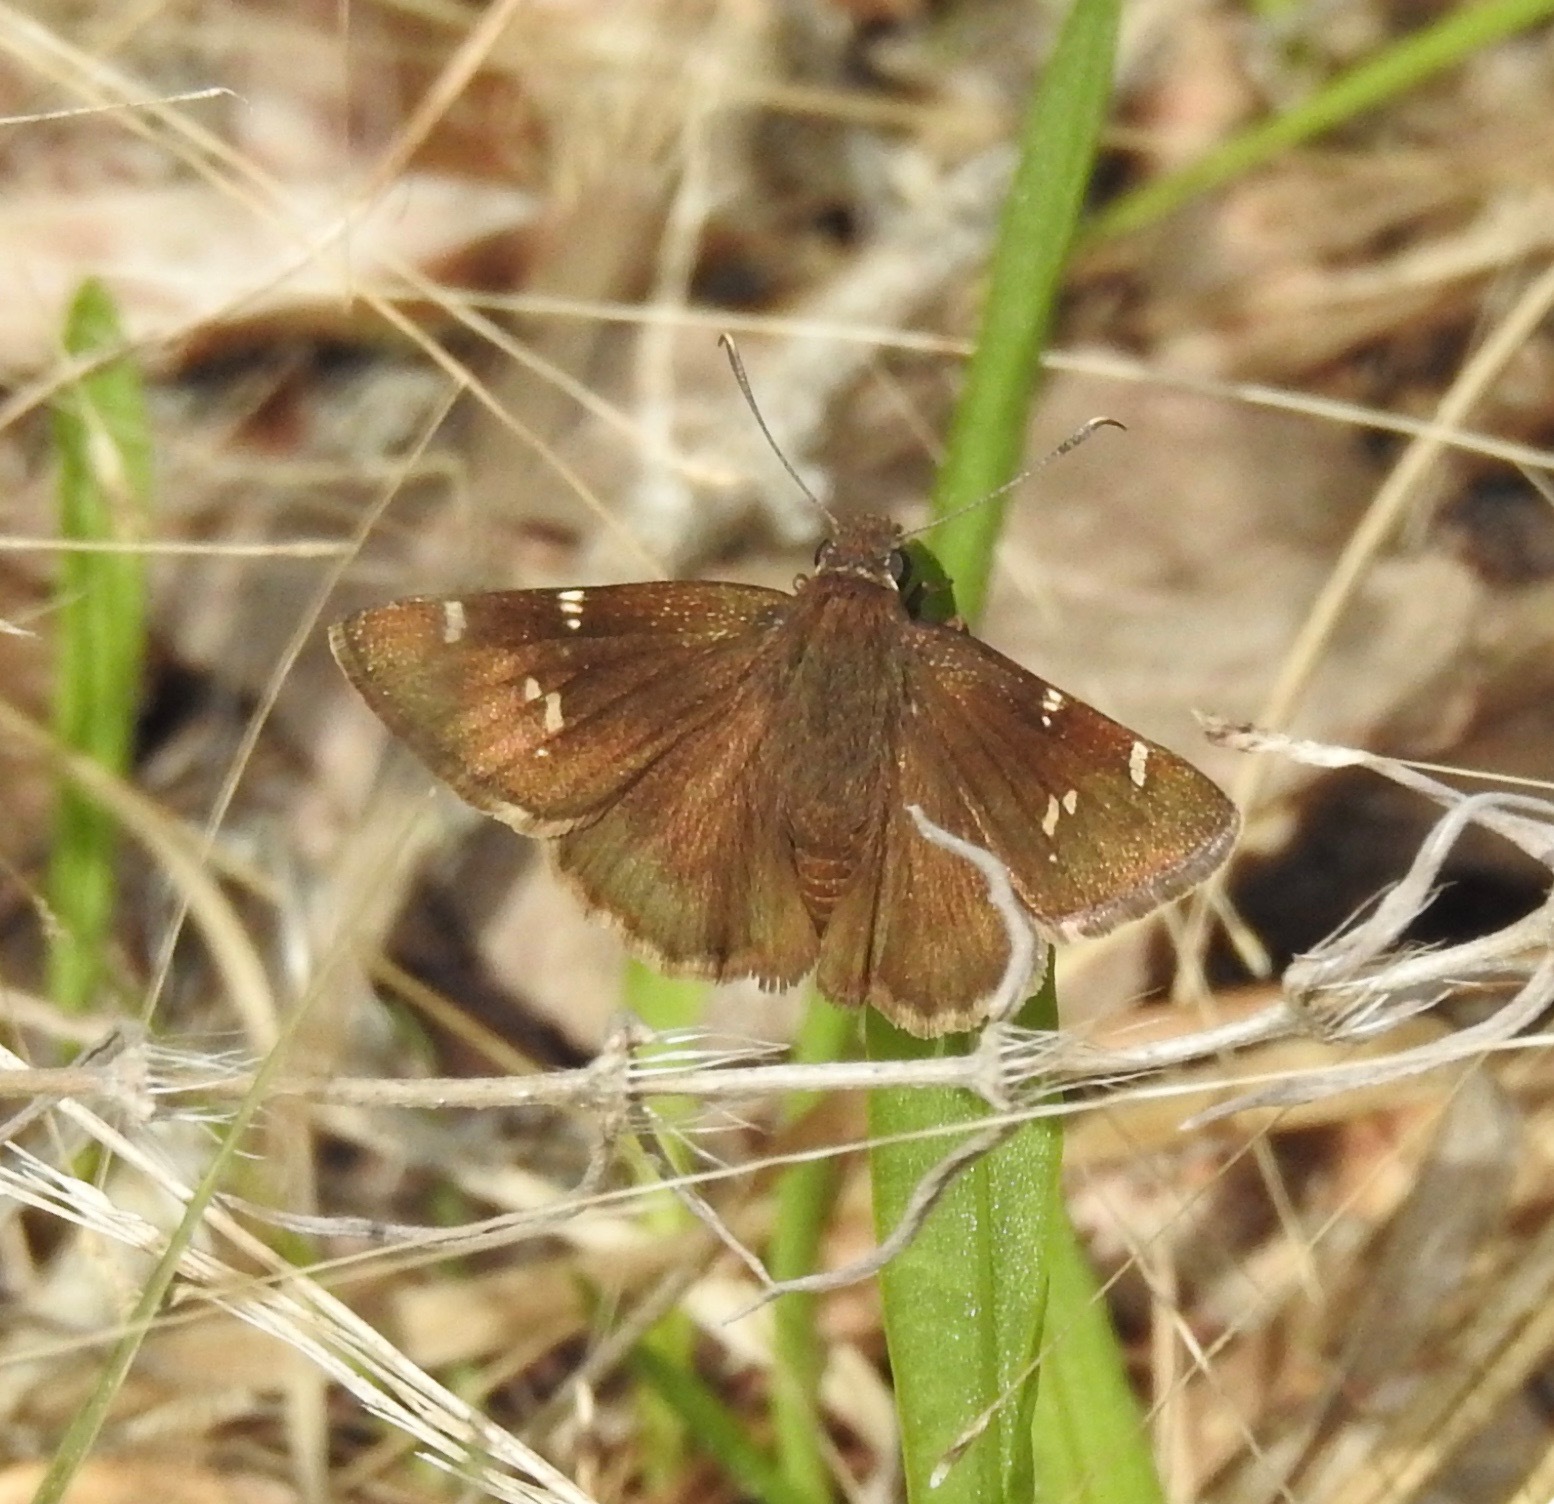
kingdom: Animalia
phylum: Arthropoda
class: Insecta
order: Lepidoptera
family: Hesperiidae
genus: Thorybes
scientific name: Thorybes daunus
